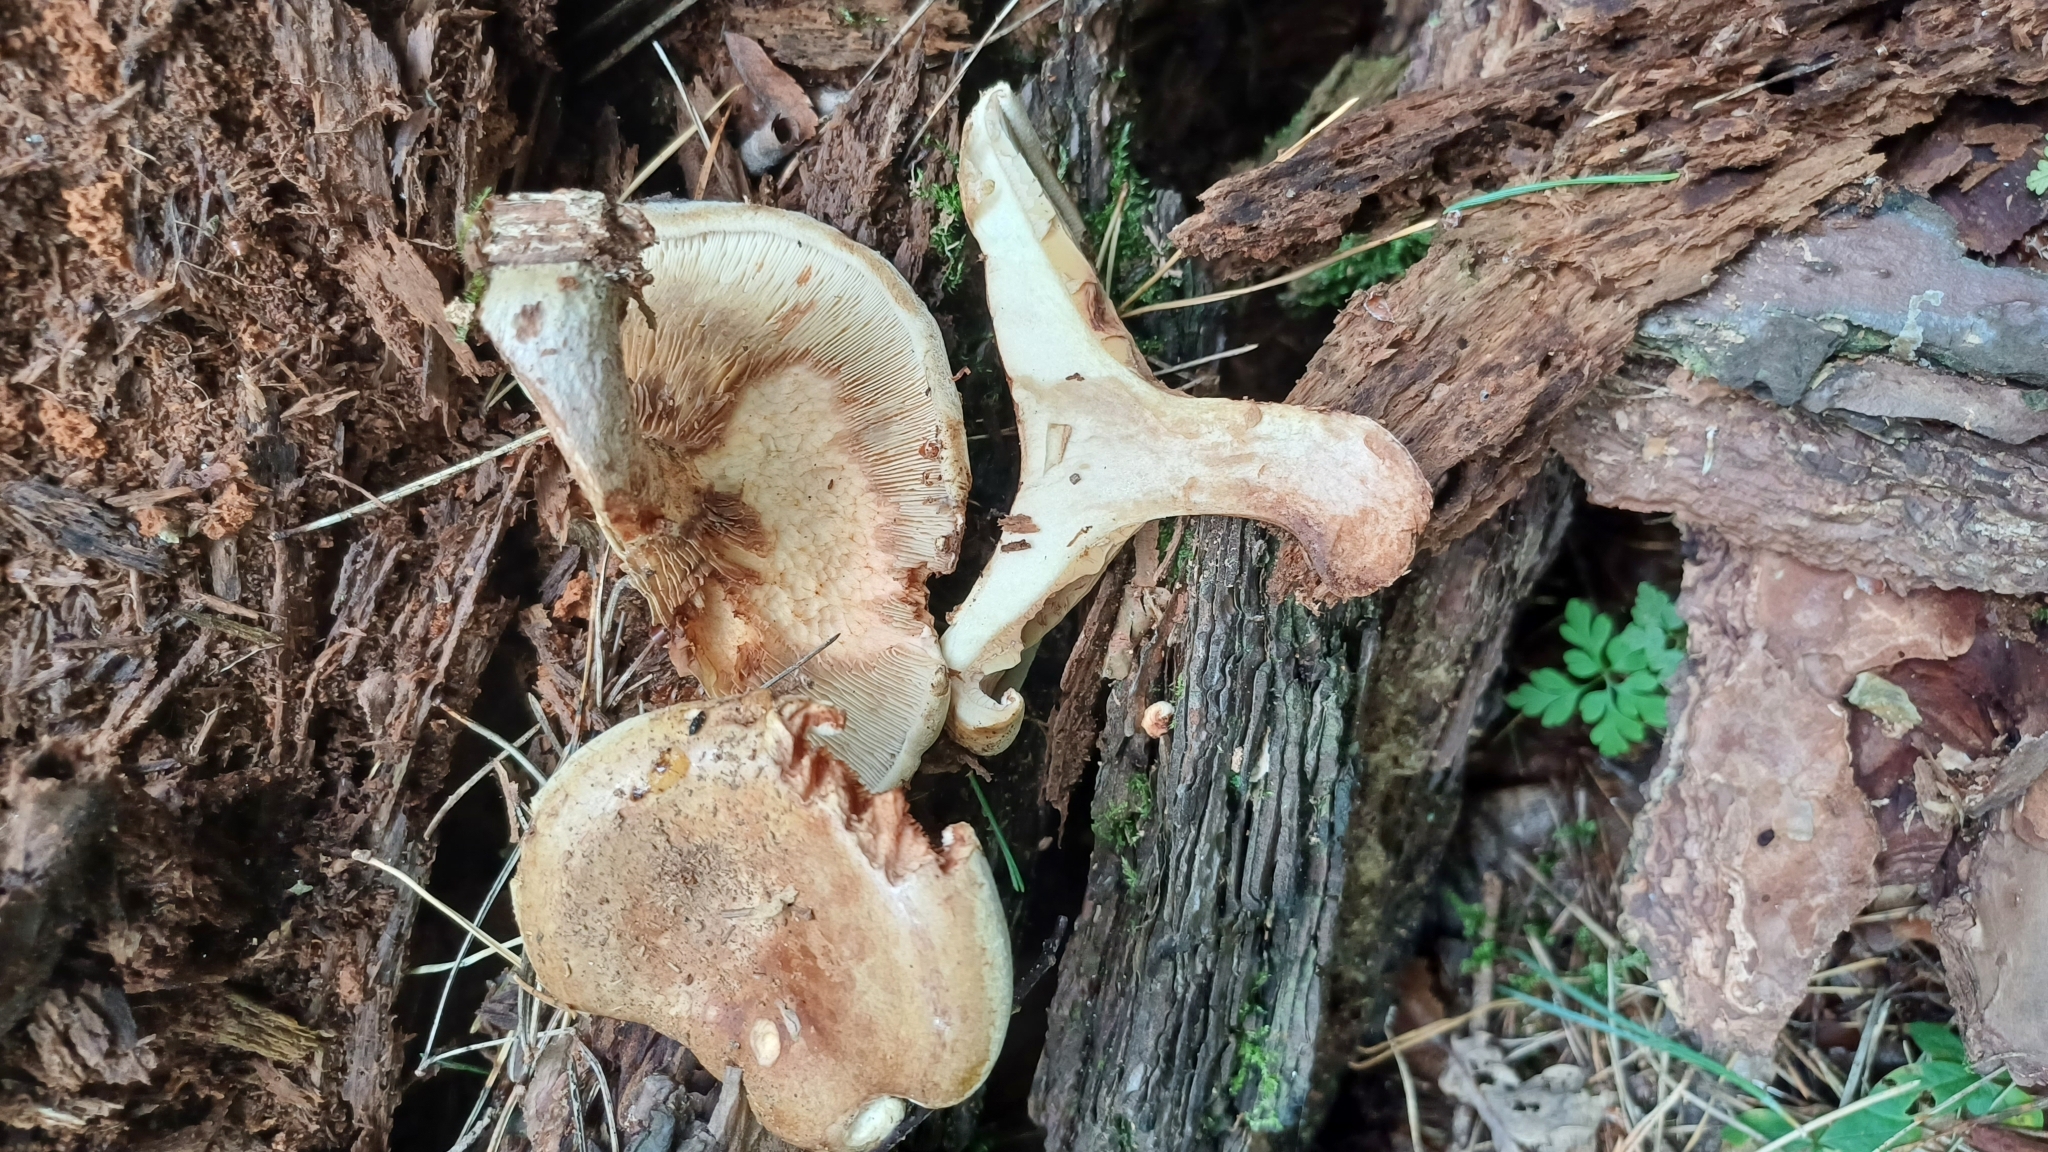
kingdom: Fungi
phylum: Basidiomycota
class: Agaricomycetes
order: Boletales
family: Paxillaceae
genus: Paxillus
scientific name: Paxillus involutus
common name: Brown roll rim
